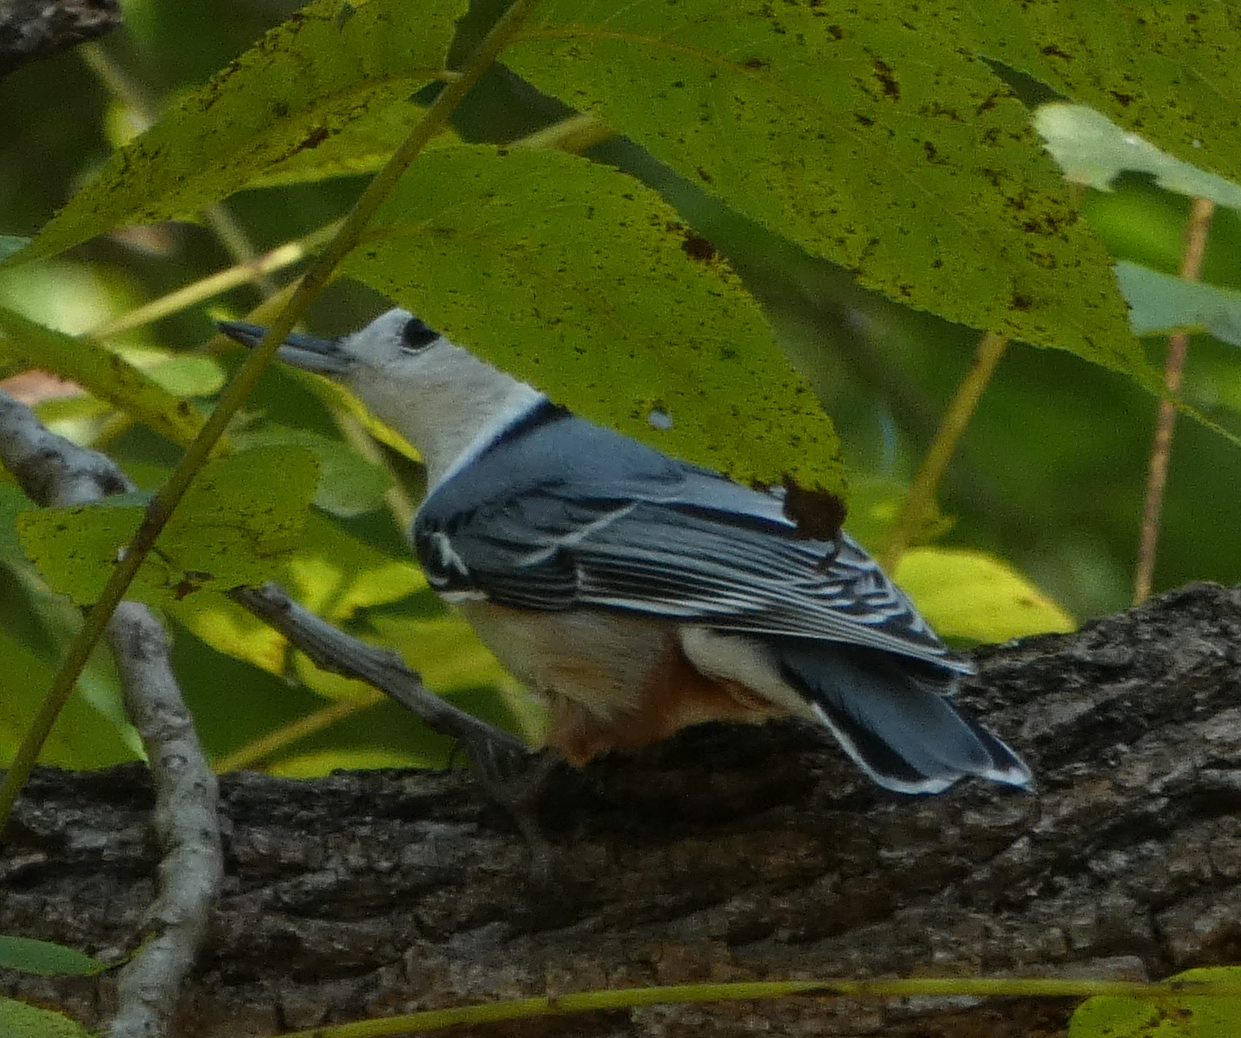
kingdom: Animalia
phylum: Chordata
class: Aves
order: Passeriformes
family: Sittidae
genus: Sitta
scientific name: Sitta carolinensis
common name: White-breasted nuthatch
